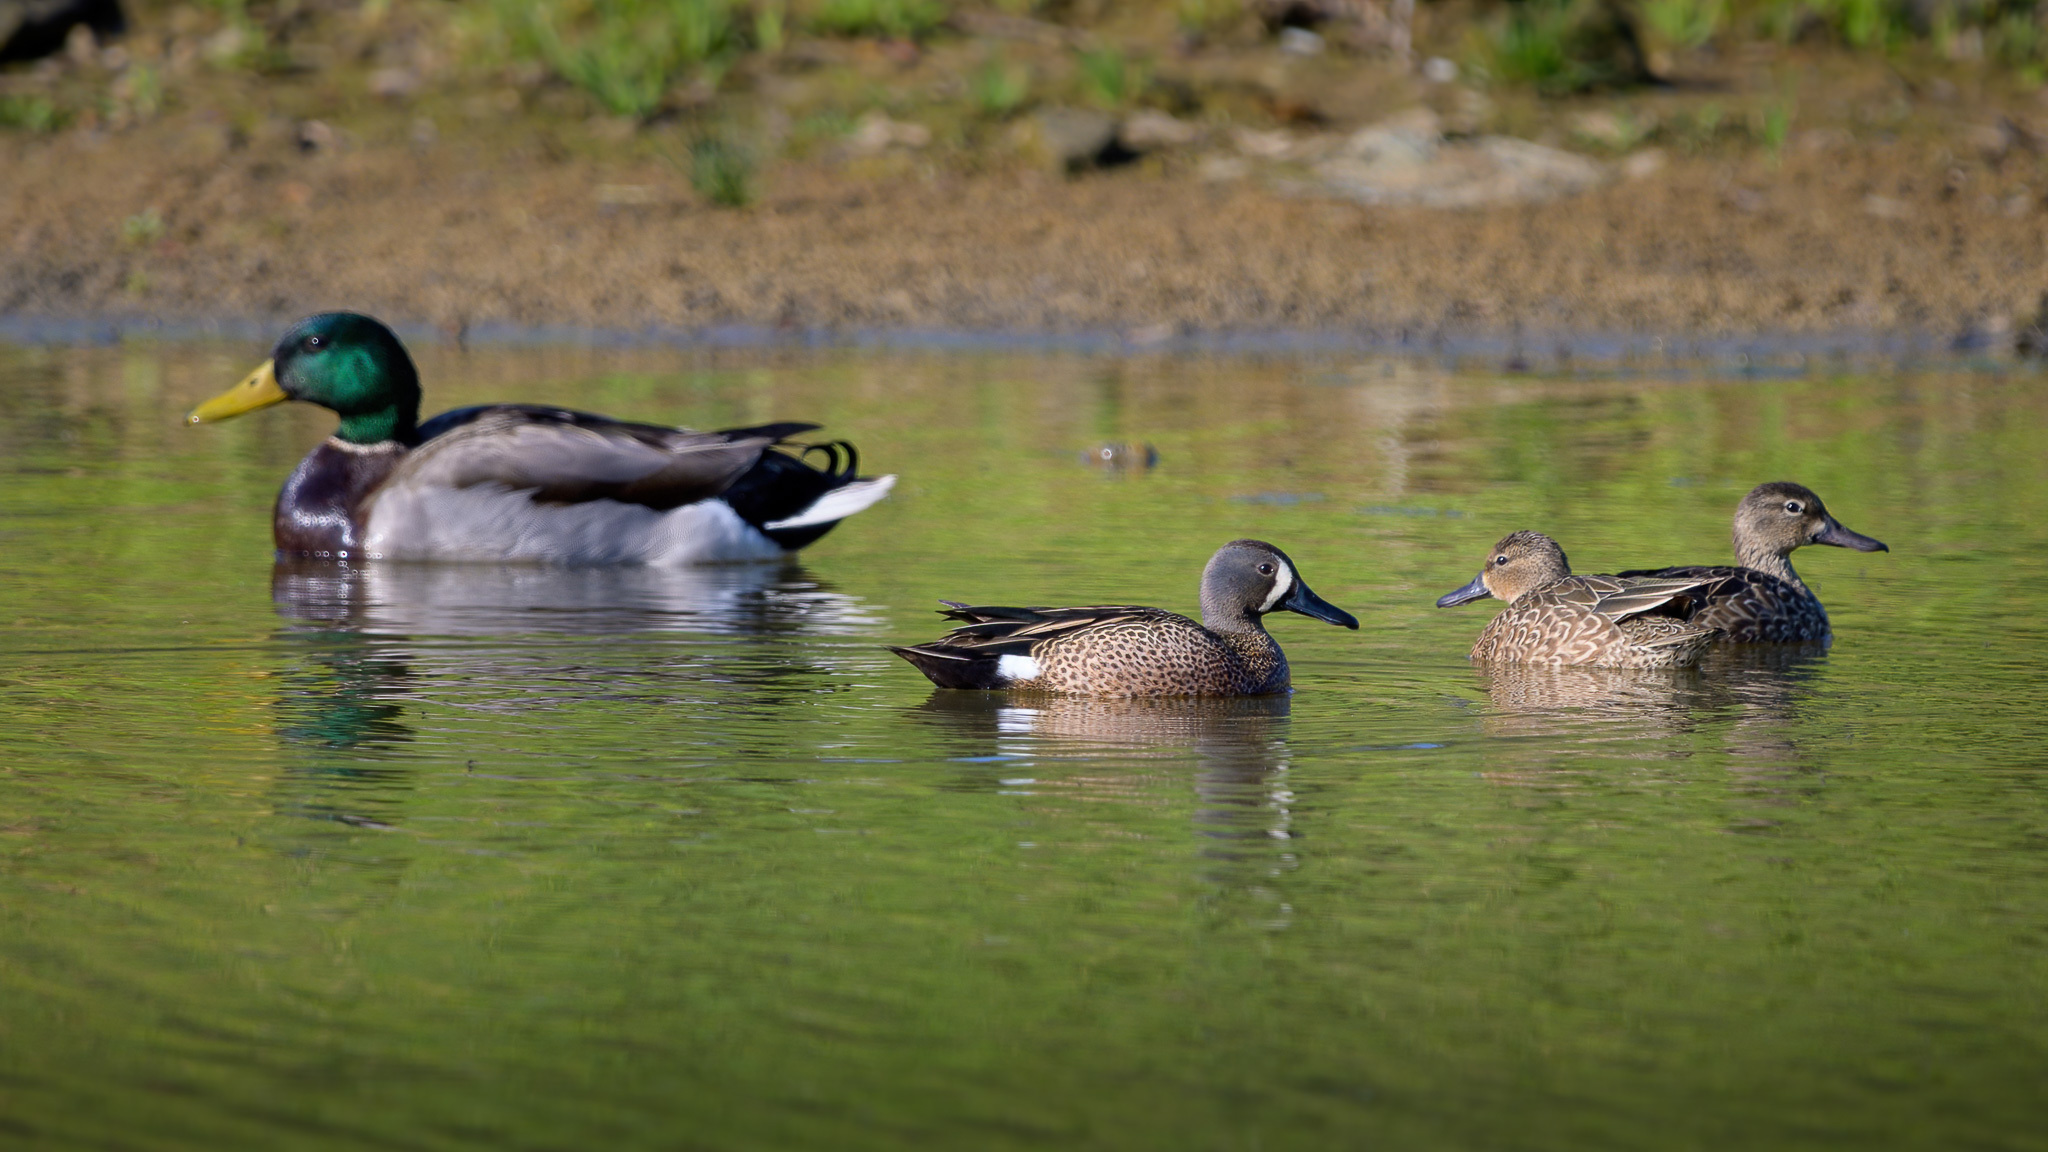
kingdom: Animalia
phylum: Chordata
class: Aves
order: Anseriformes
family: Anatidae
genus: Spatula
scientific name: Spatula discors
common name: Blue-winged teal
